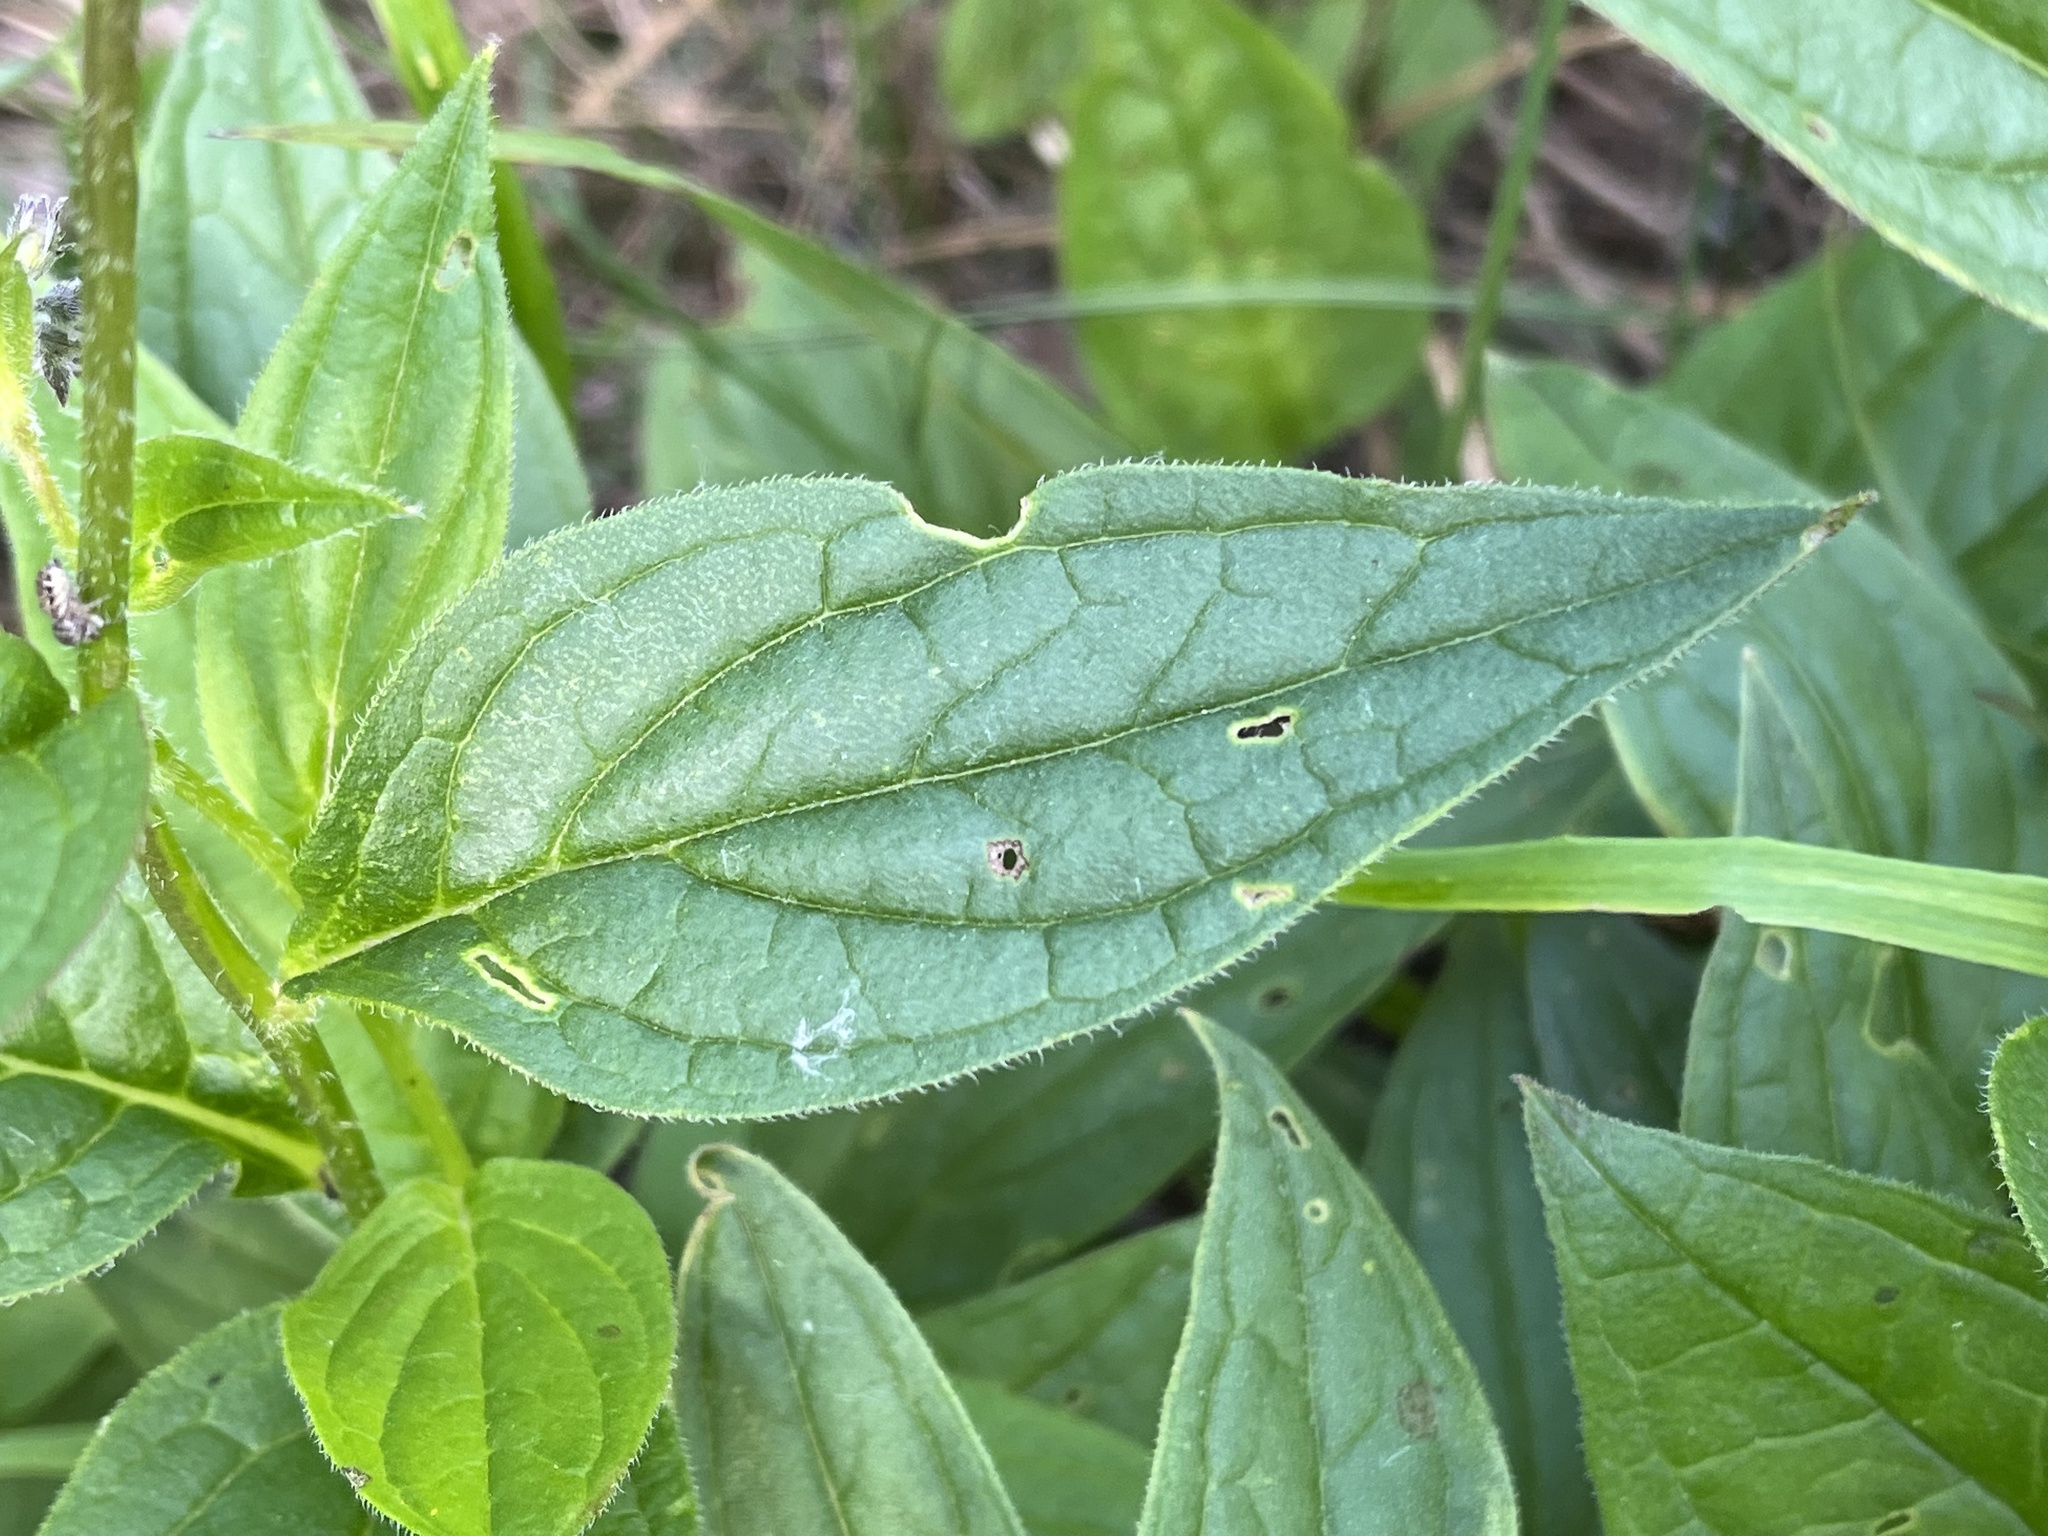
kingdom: Plantae
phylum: Tracheophyta
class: Magnoliopsida
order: Boraginales
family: Boraginaceae
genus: Mertensia
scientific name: Mertensia paniculata
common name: Panicled bluebells
